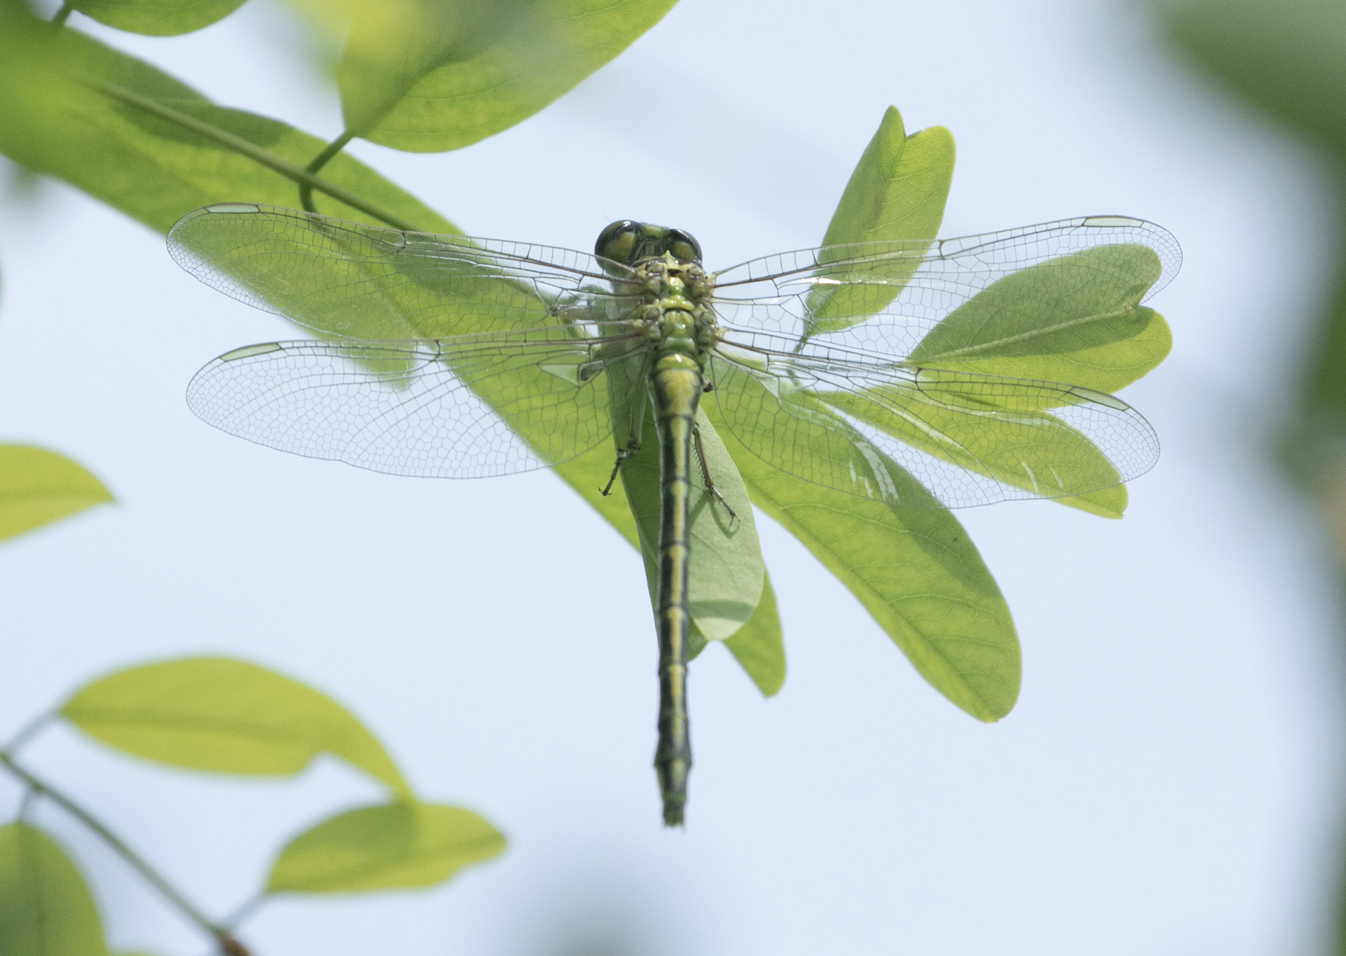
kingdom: Animalia
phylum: Arthropoda
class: Insecta
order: Odonata
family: Gomphidae
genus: Stylurus
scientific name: Stylurus flavipes
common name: River clubtail
